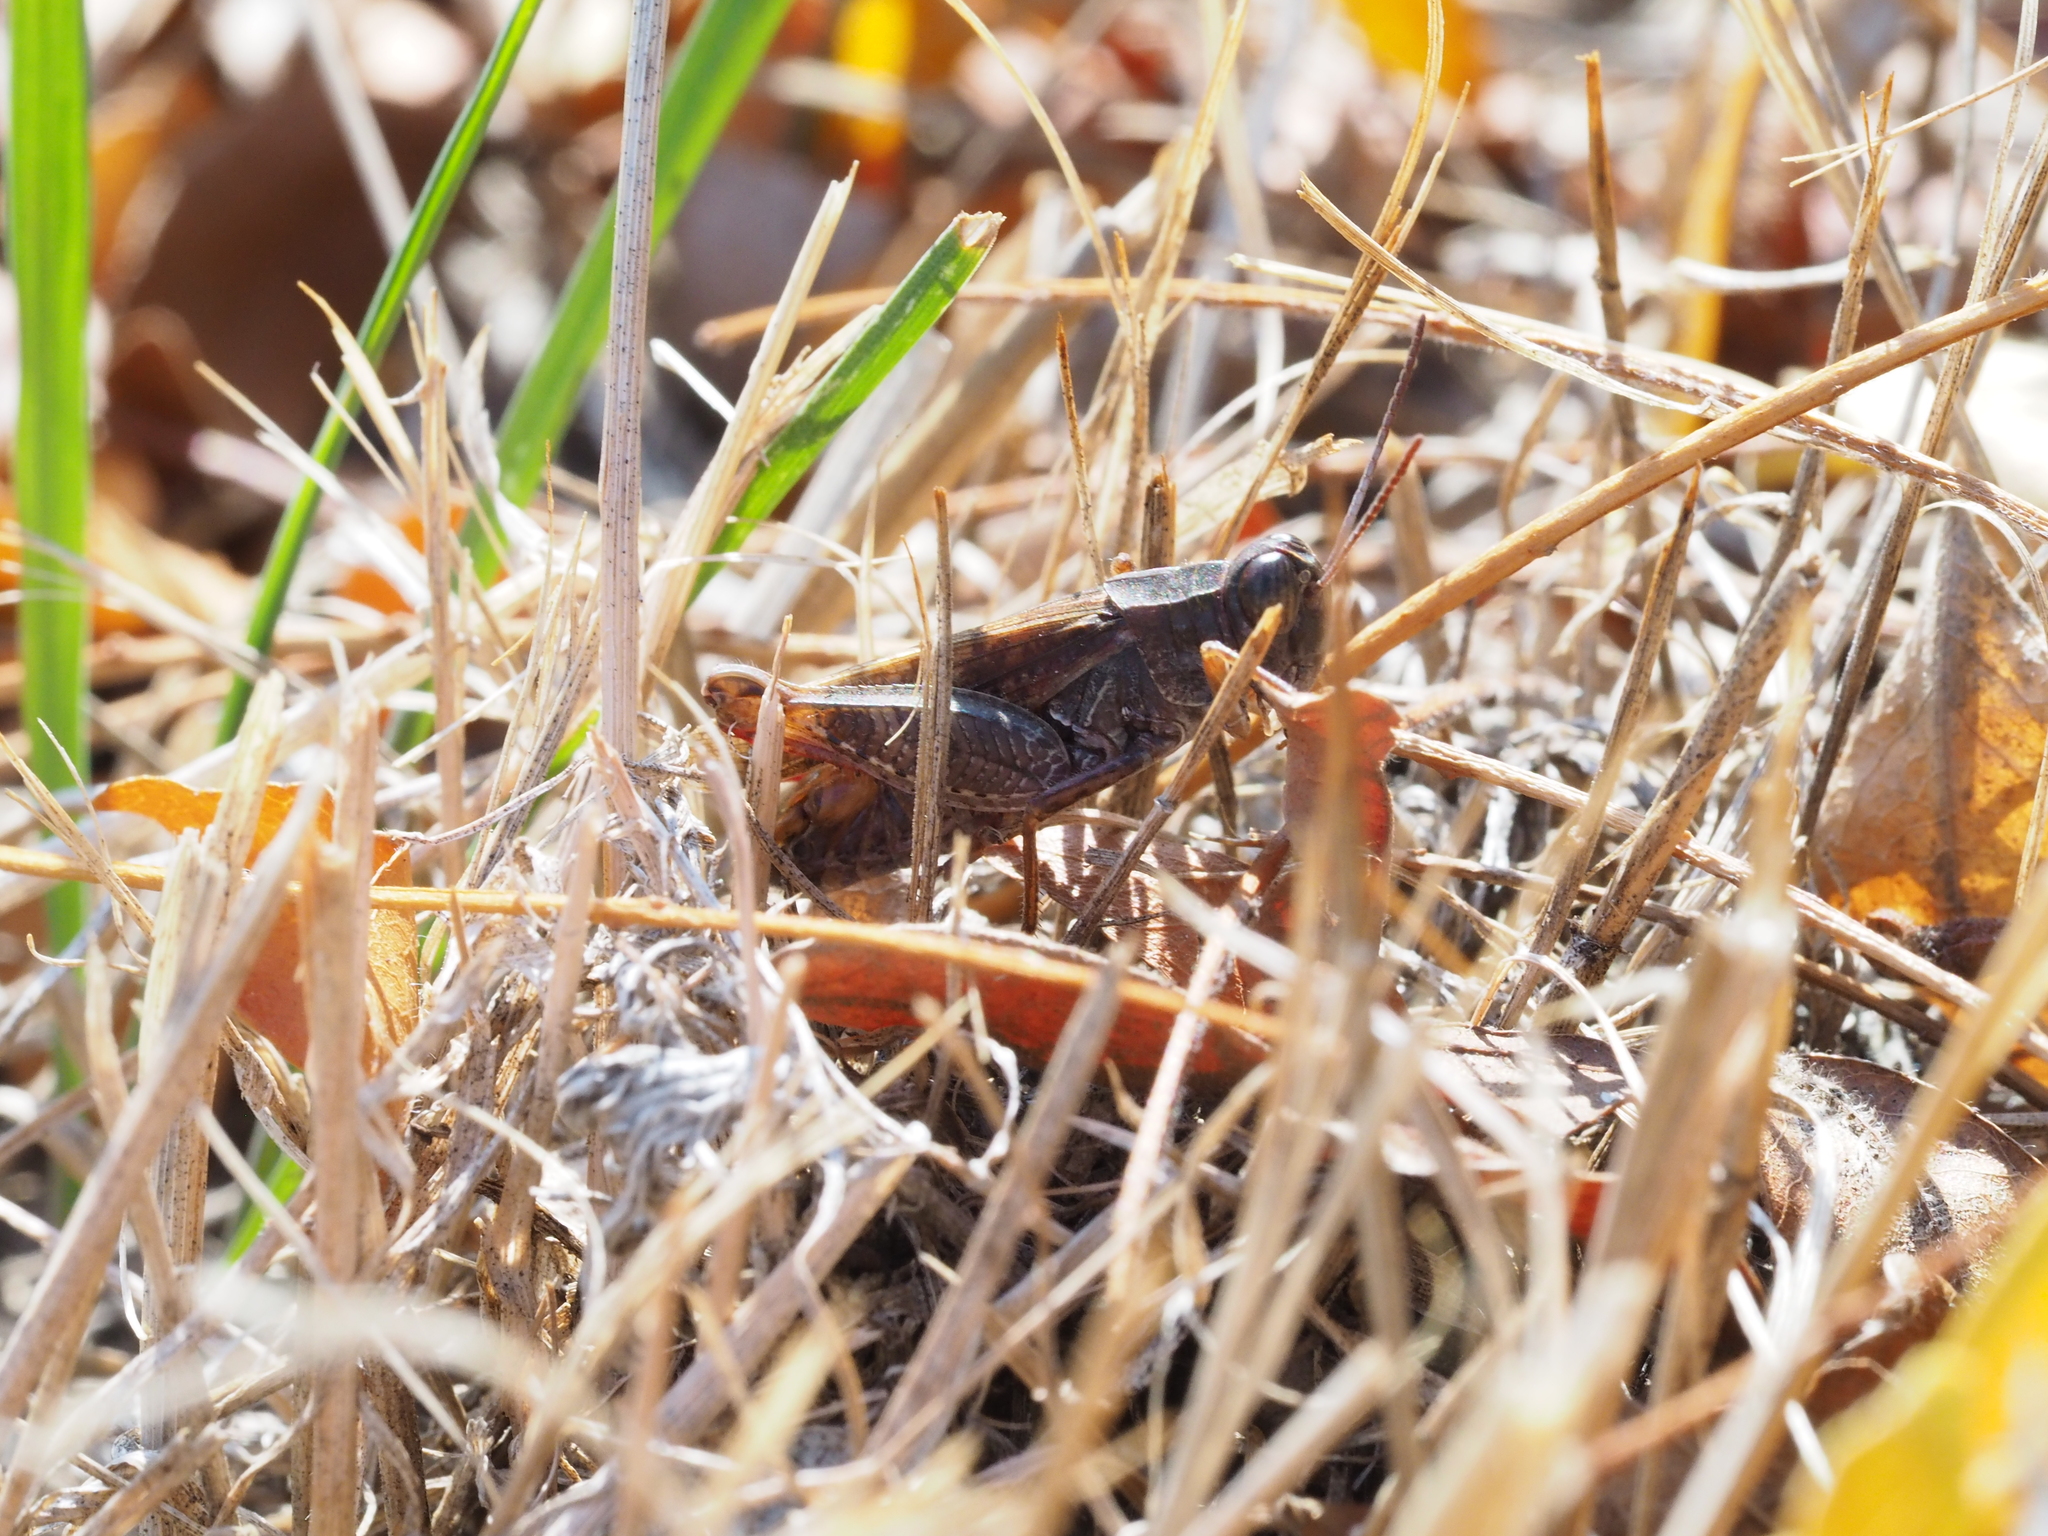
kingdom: Animalia
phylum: Arthropoda
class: Insecta
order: Orthoptera
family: Acrididae
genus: Calliptamus
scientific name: Calliptamus italicus
